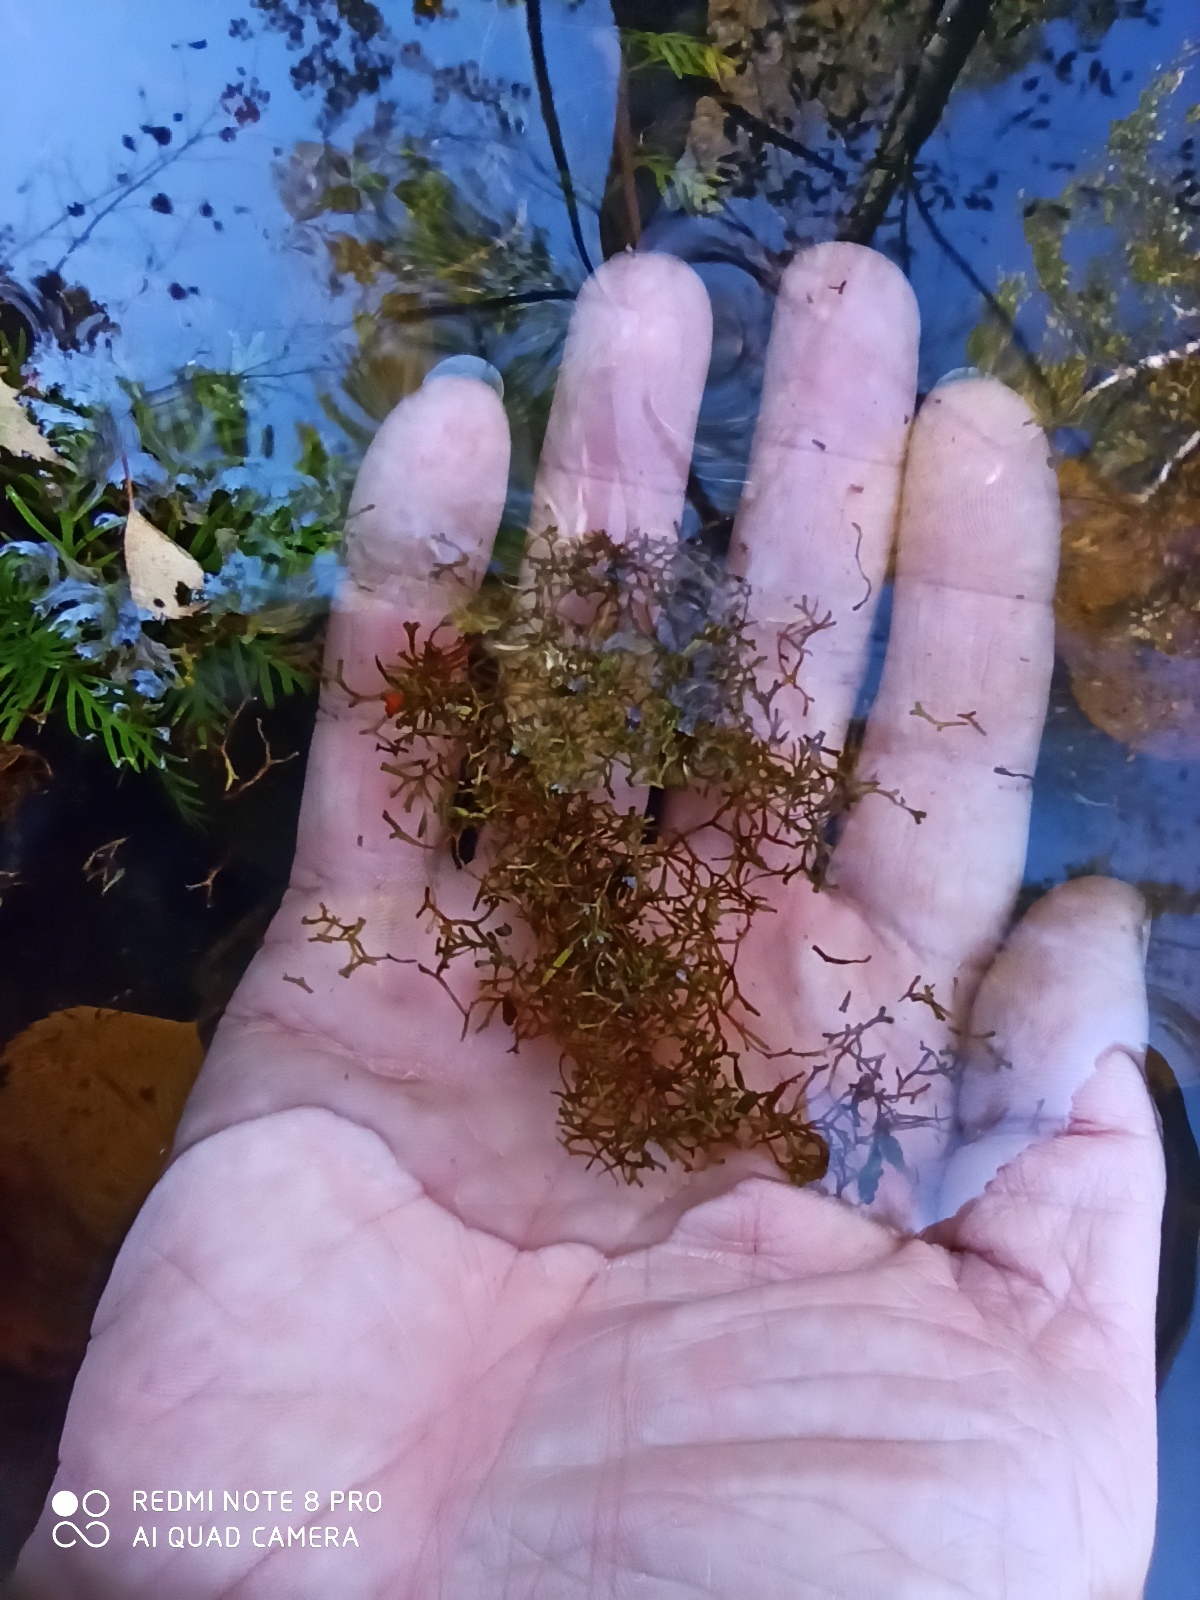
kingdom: Plantae
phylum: Marchantiophyta
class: Marchantiopsida
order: Marchantiales
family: Ricciaceae
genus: Riccia
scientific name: Riccia fluitans
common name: Floating crystalwort
